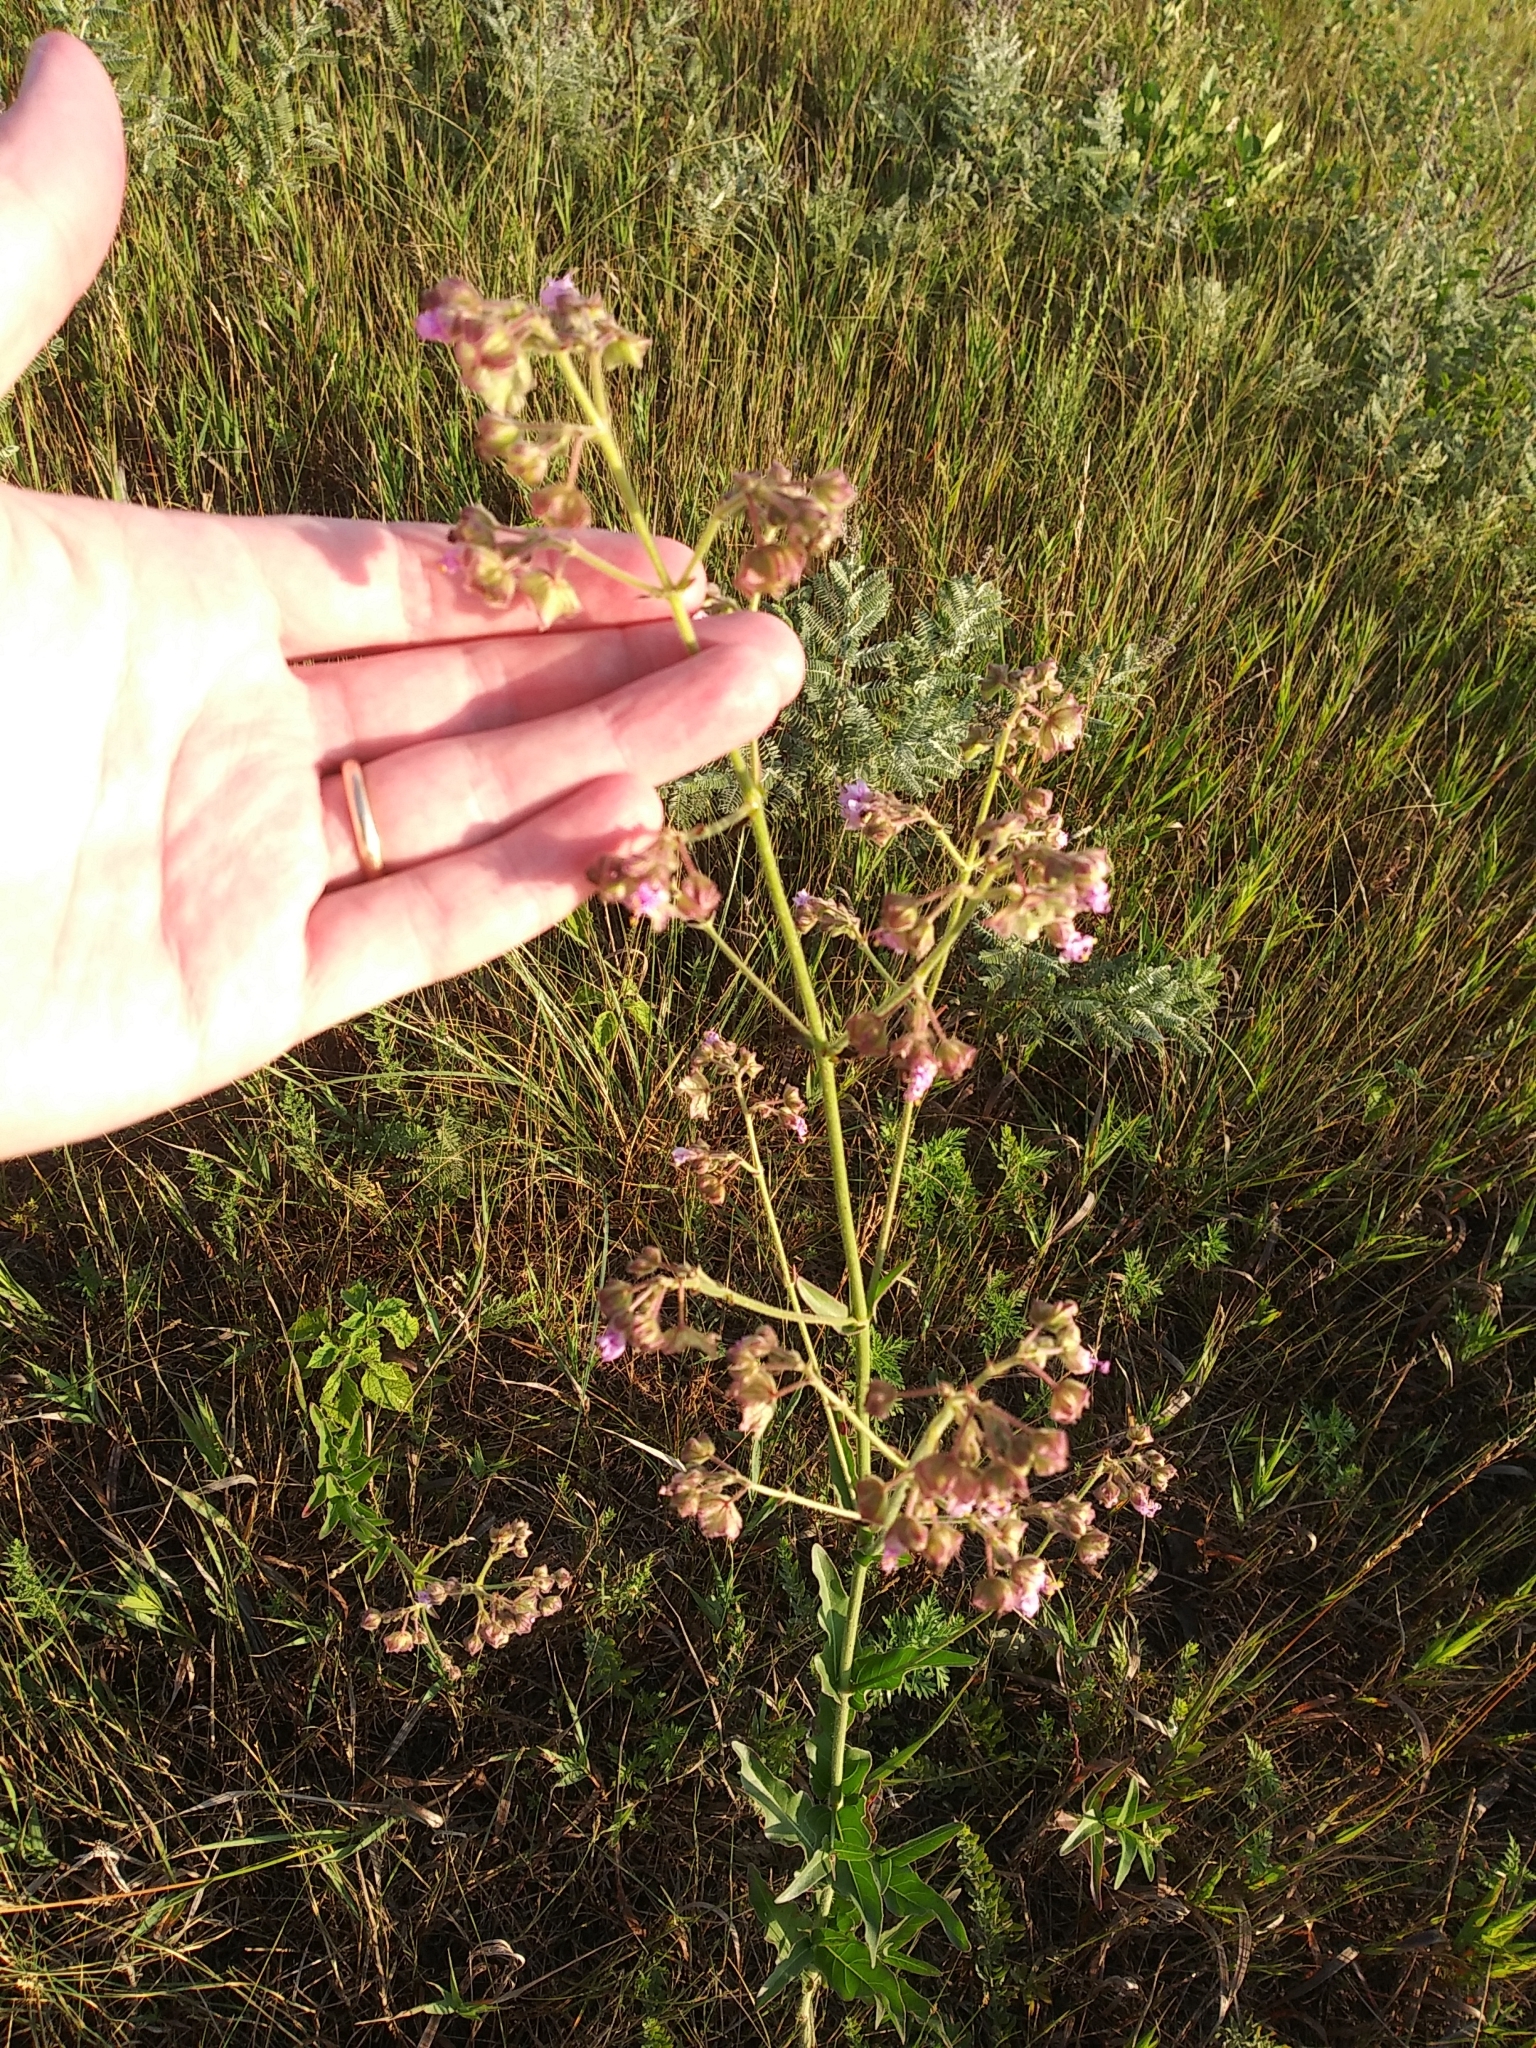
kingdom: Plantae
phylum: Tracheophyta
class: Magnoliopsida
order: Caryophyllales
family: Nyctaginaceae
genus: Mirabilis
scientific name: Mirabilis albida
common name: Hairy four-o'clock
